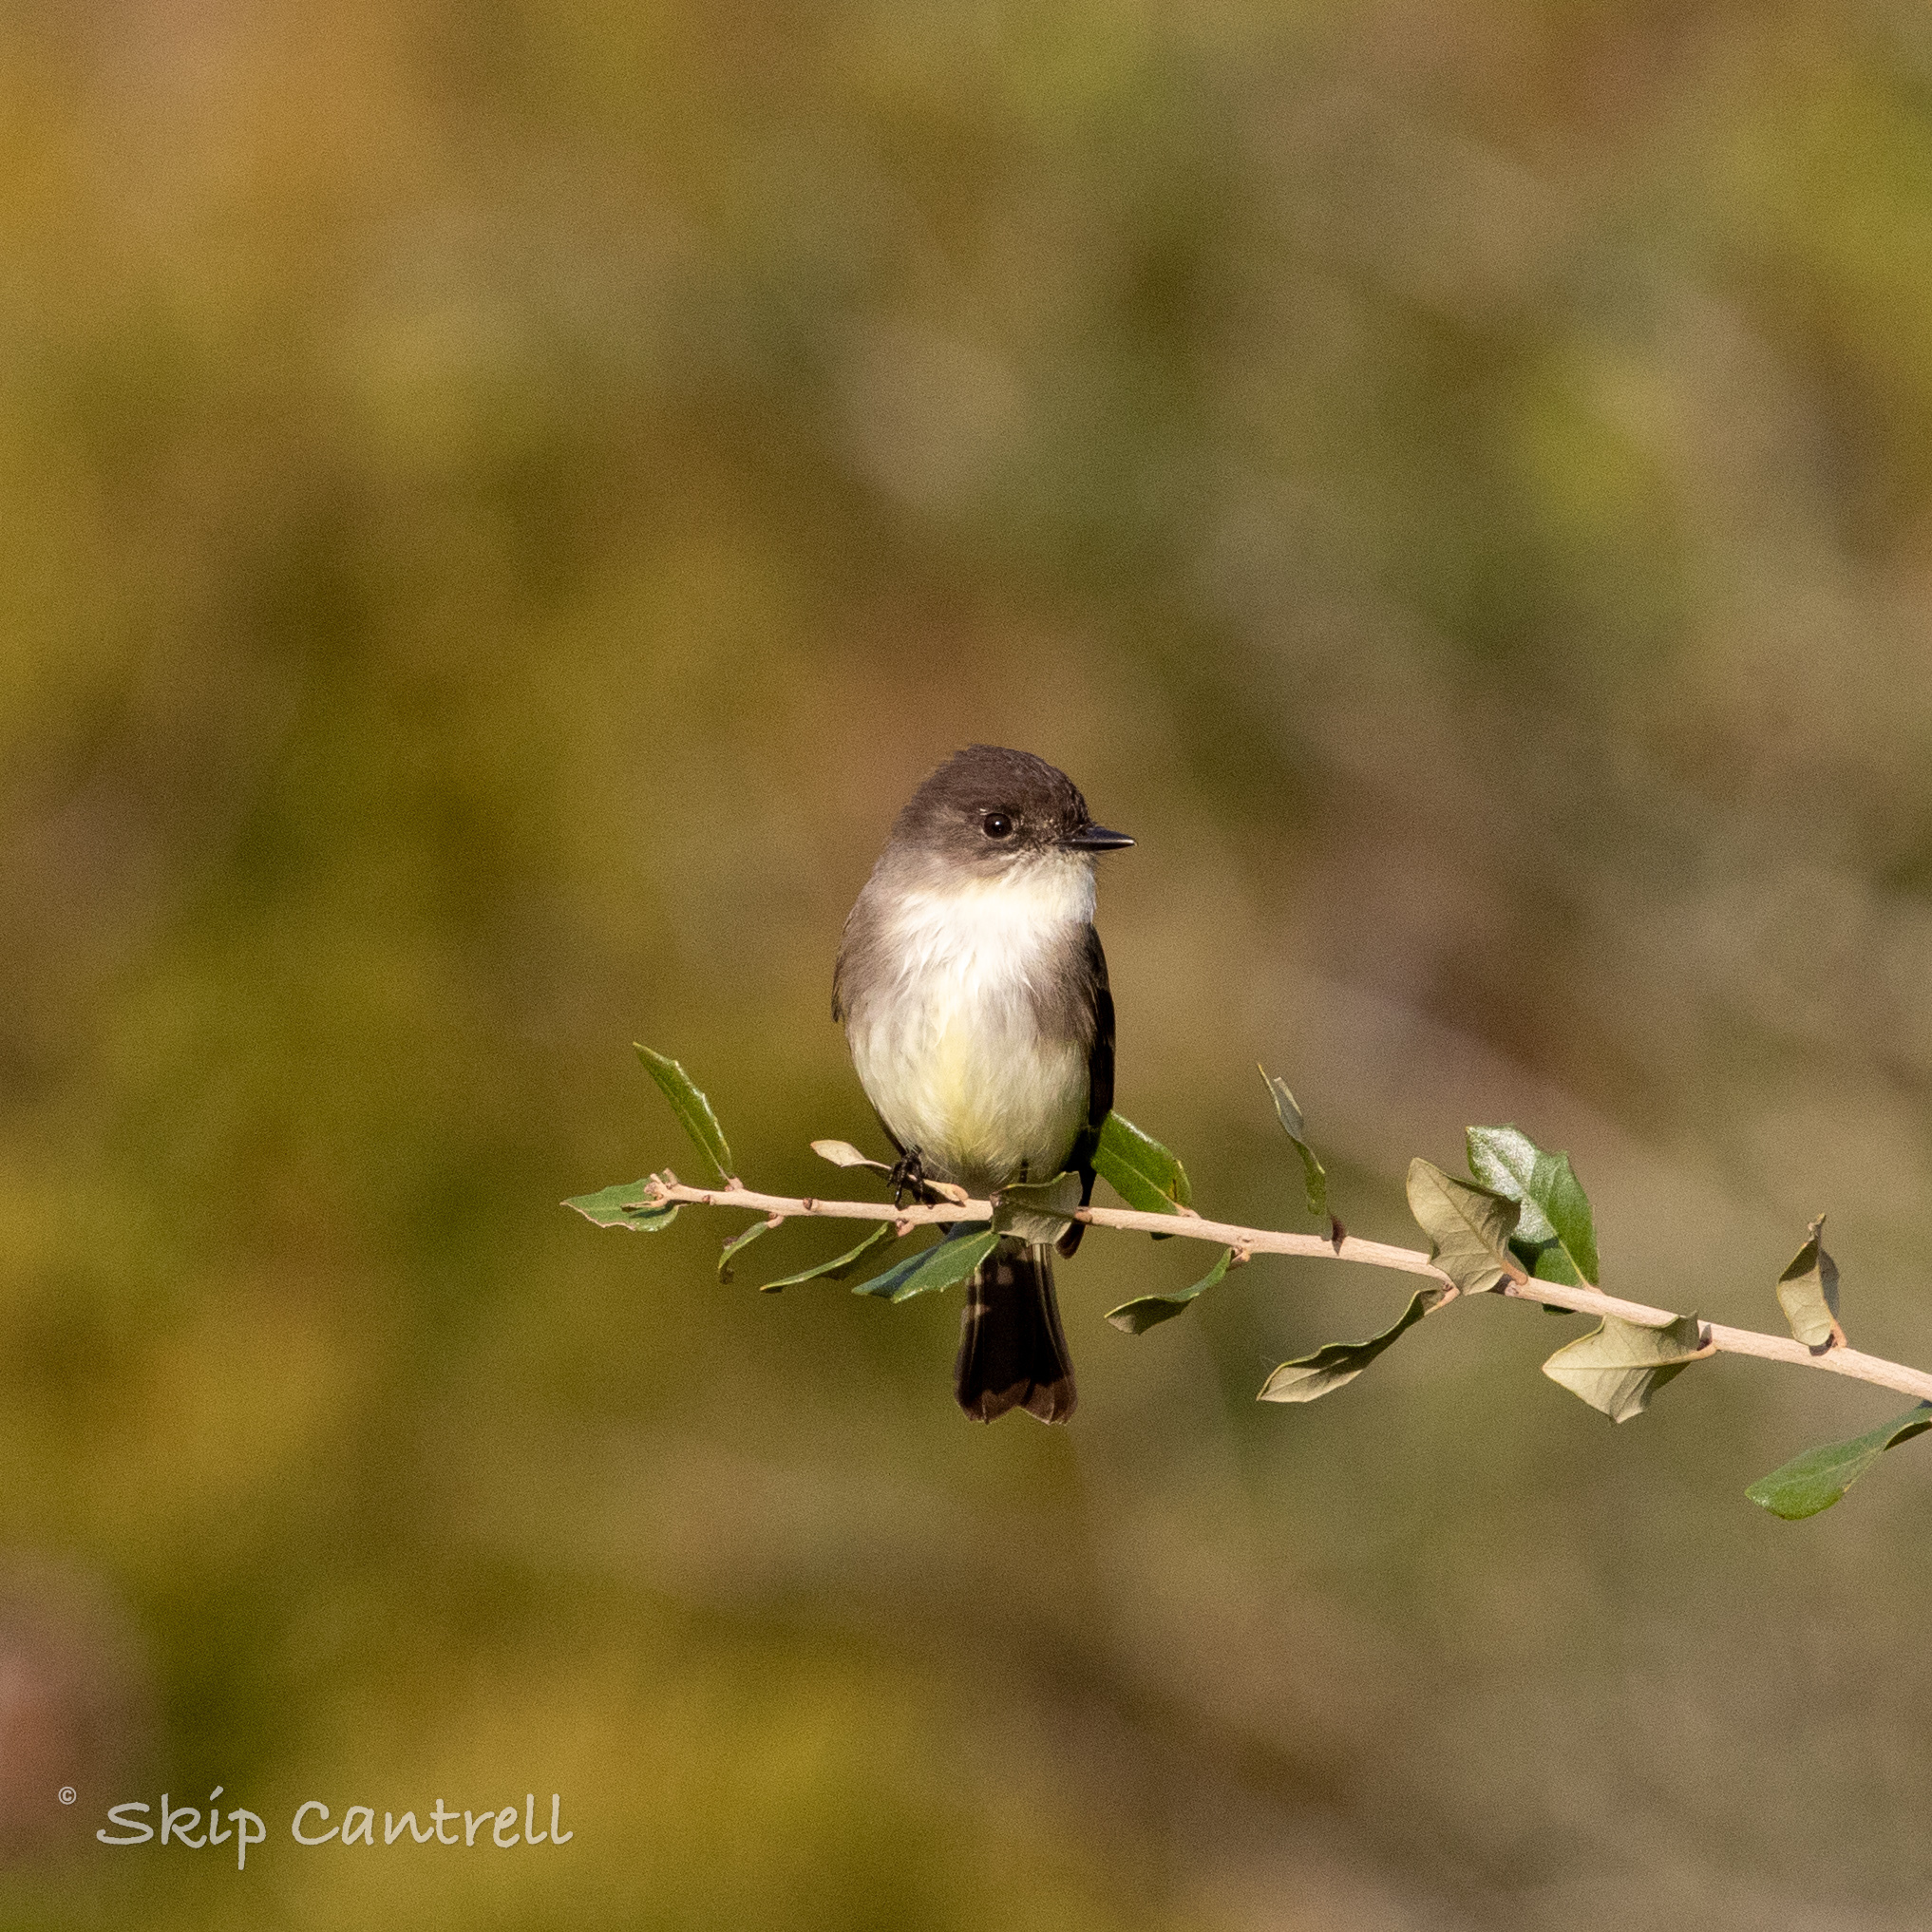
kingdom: Animalia
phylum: Chordata
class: Aves
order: Passeriformes
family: Tyrannidae
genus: Sayornis
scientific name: Sayornis phoebe
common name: Eastern phoebe
